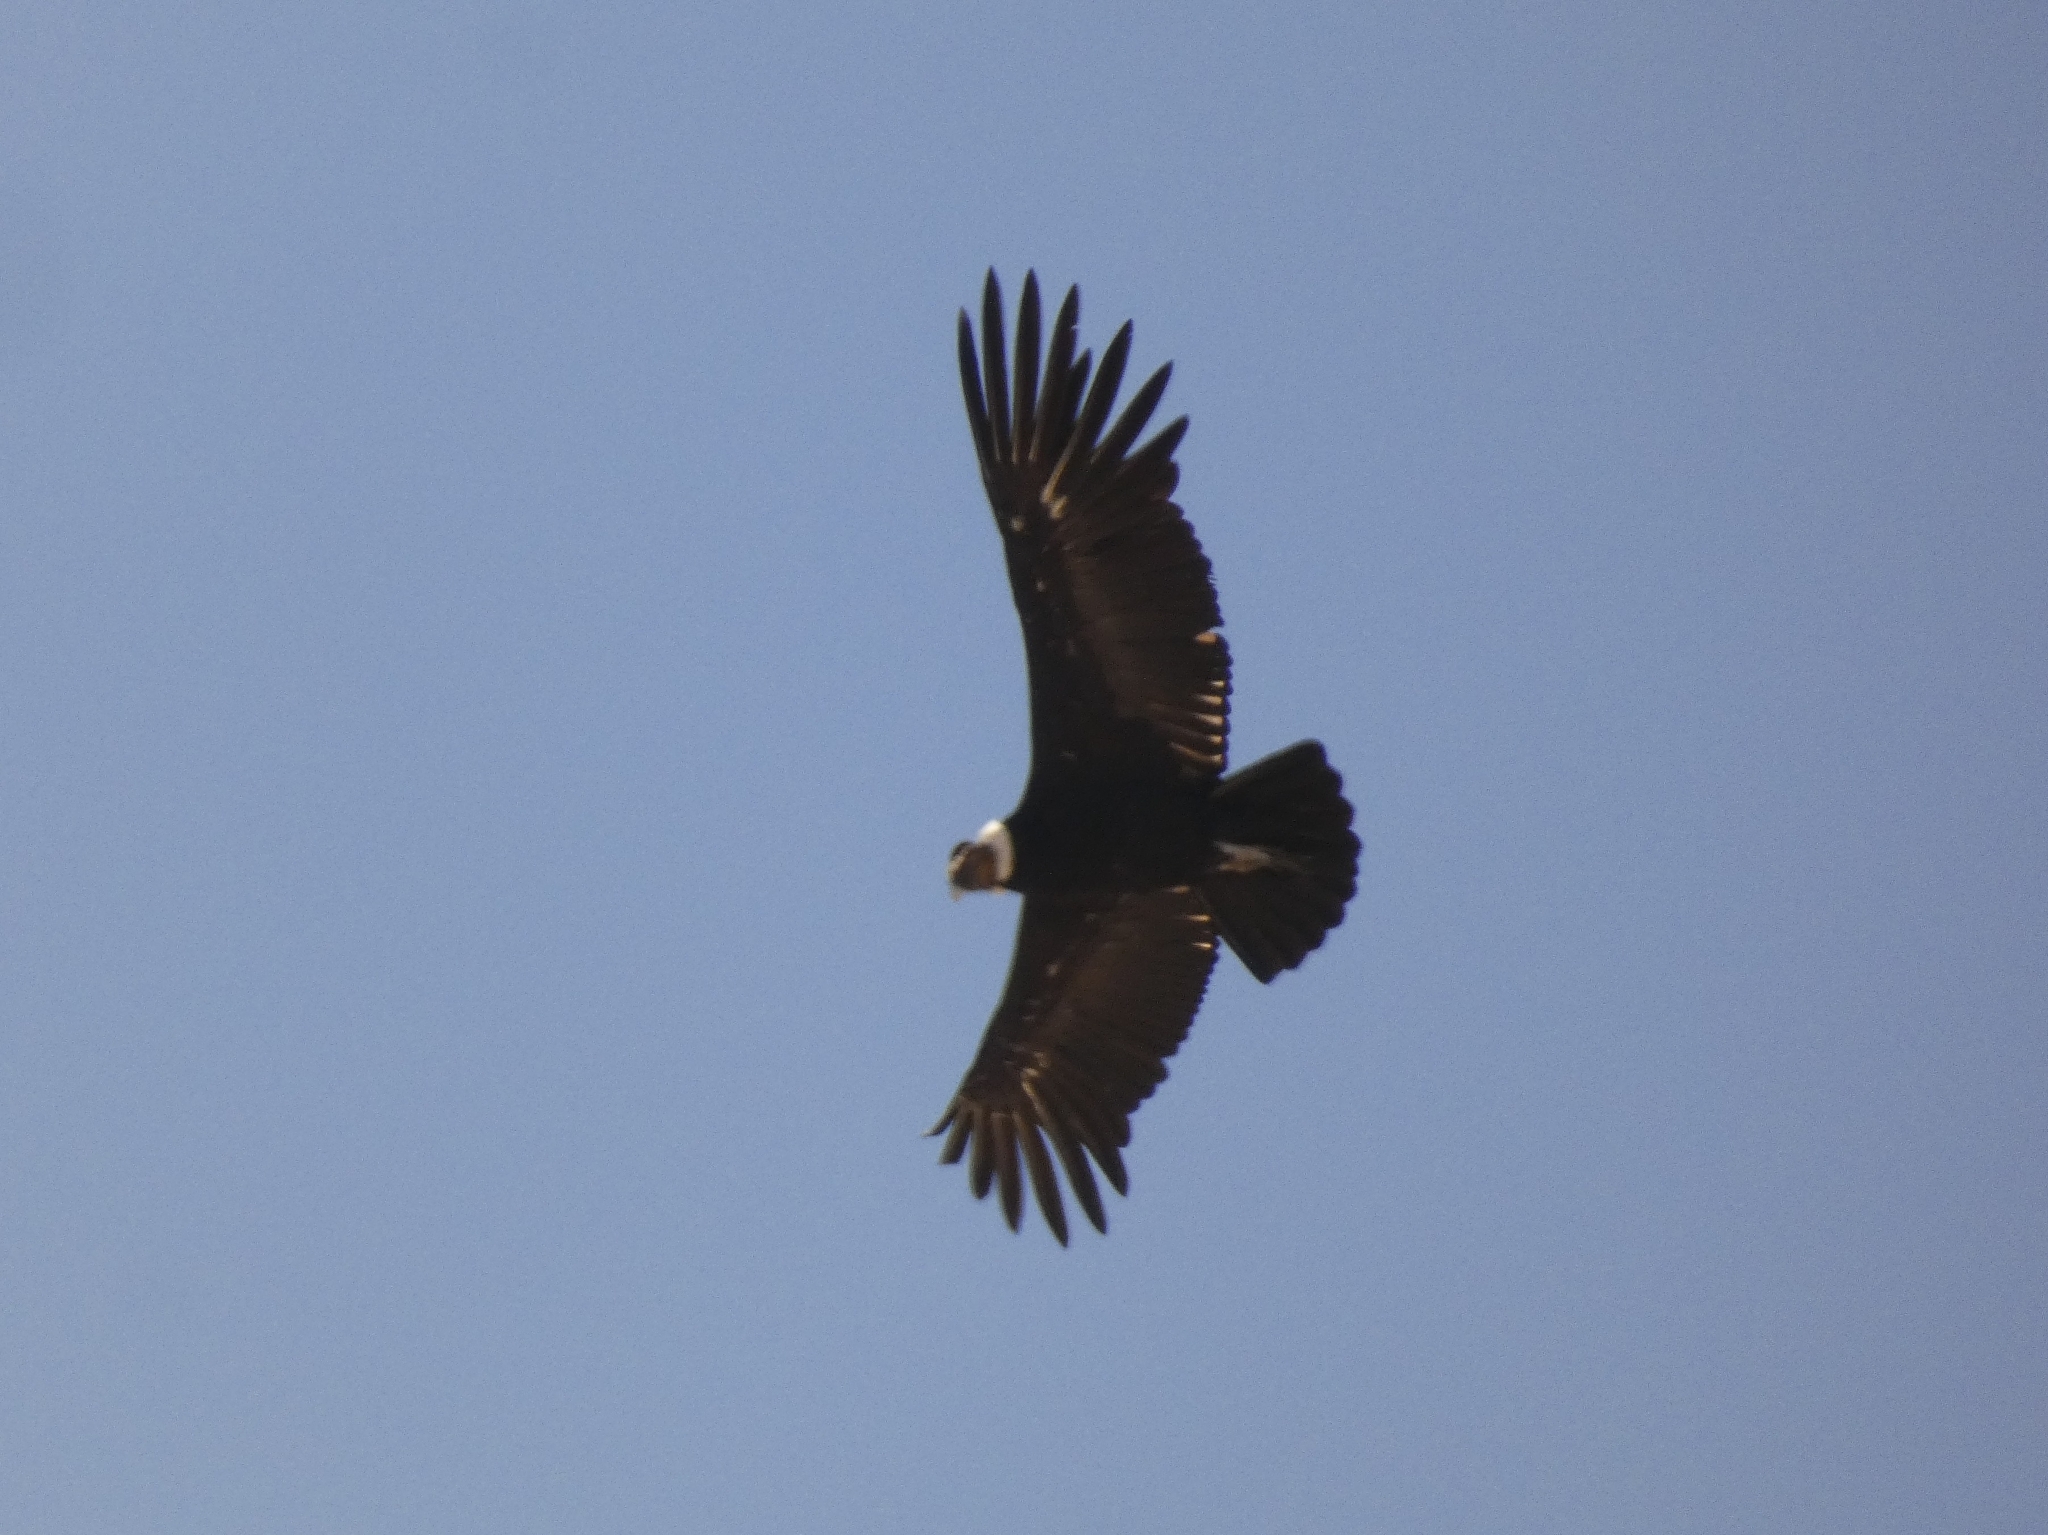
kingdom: Animalia
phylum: Chordata
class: Aves
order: Accipitriformes
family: Cathartidae
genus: Vultur
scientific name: Vultur gryphus
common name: Andean condor
